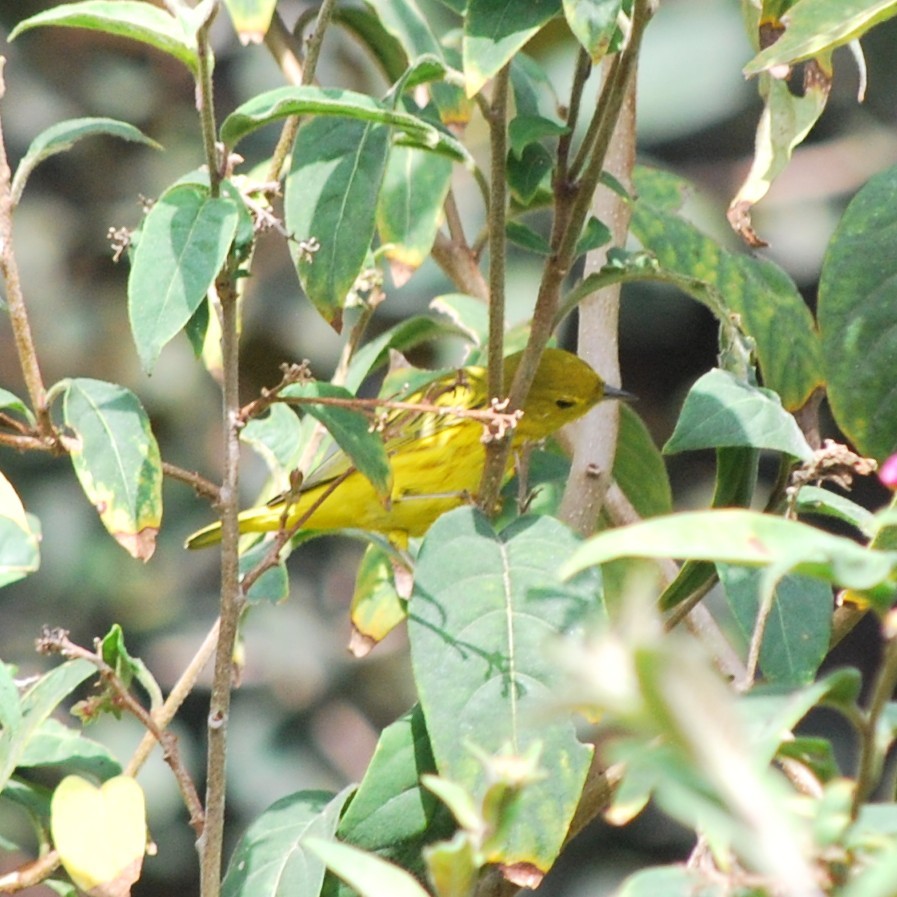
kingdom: Animalia
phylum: Chordata
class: Aves
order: Passeriformes
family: Parulidae
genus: Setophaga
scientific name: Setophaga petechia
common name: Yellow warbler
